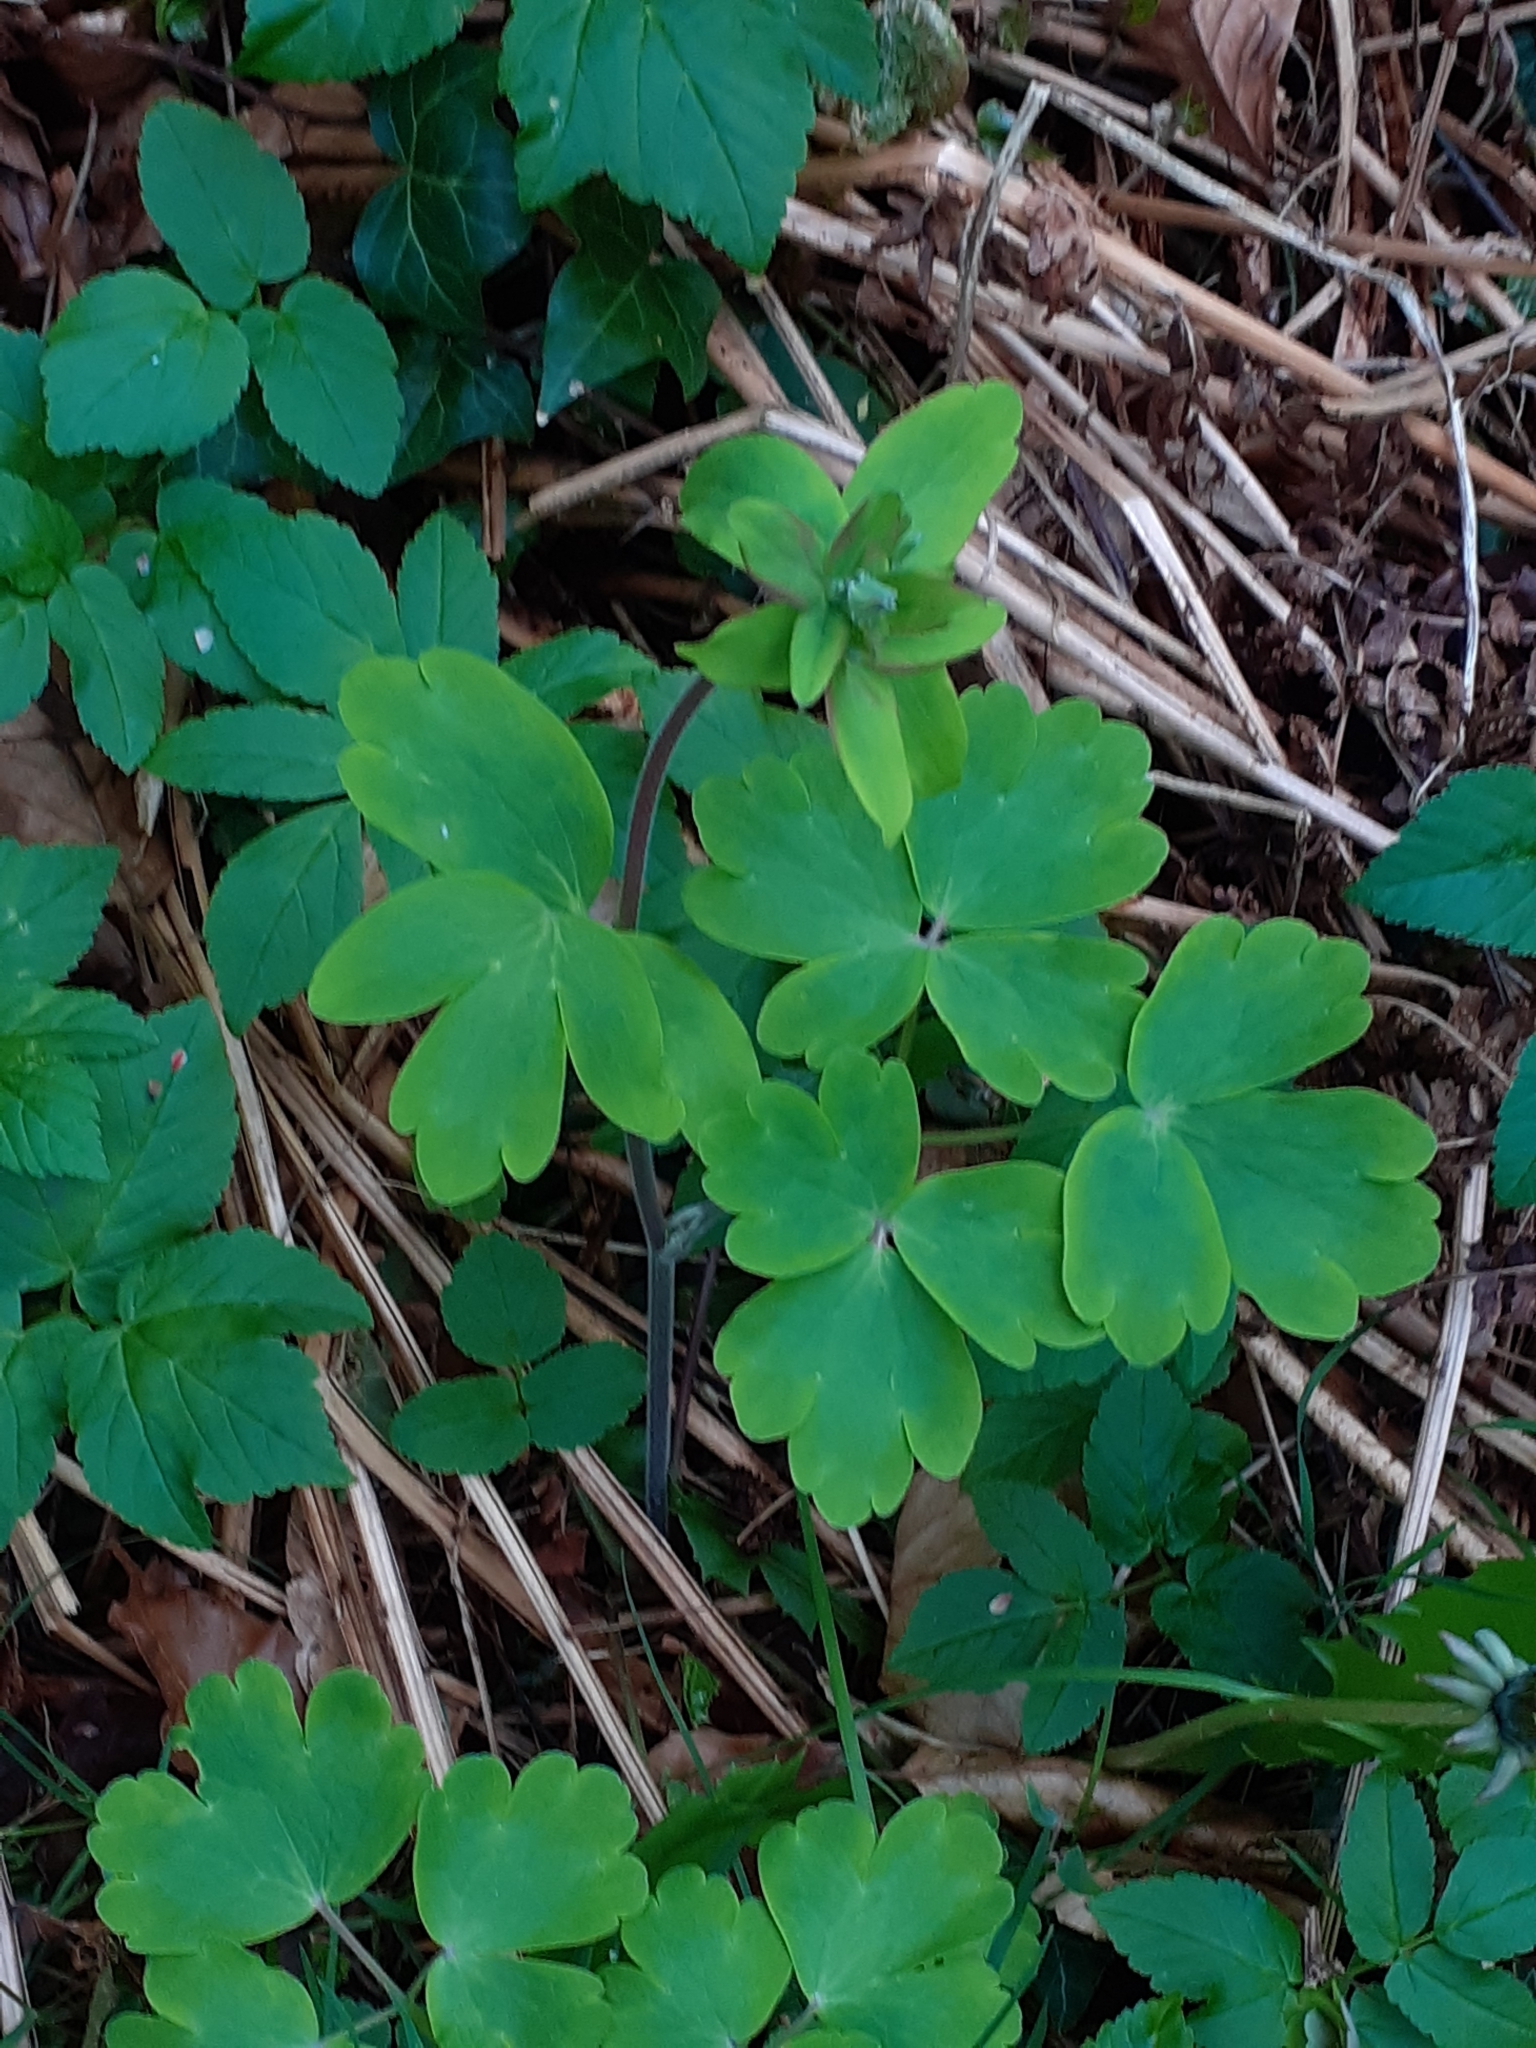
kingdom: Plantae
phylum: Tracheophyta
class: Magnoliopsida
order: Ranunculales
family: Ranunculaceae
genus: Aquilegia
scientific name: Aquilegia vulgaris
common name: Columbine
